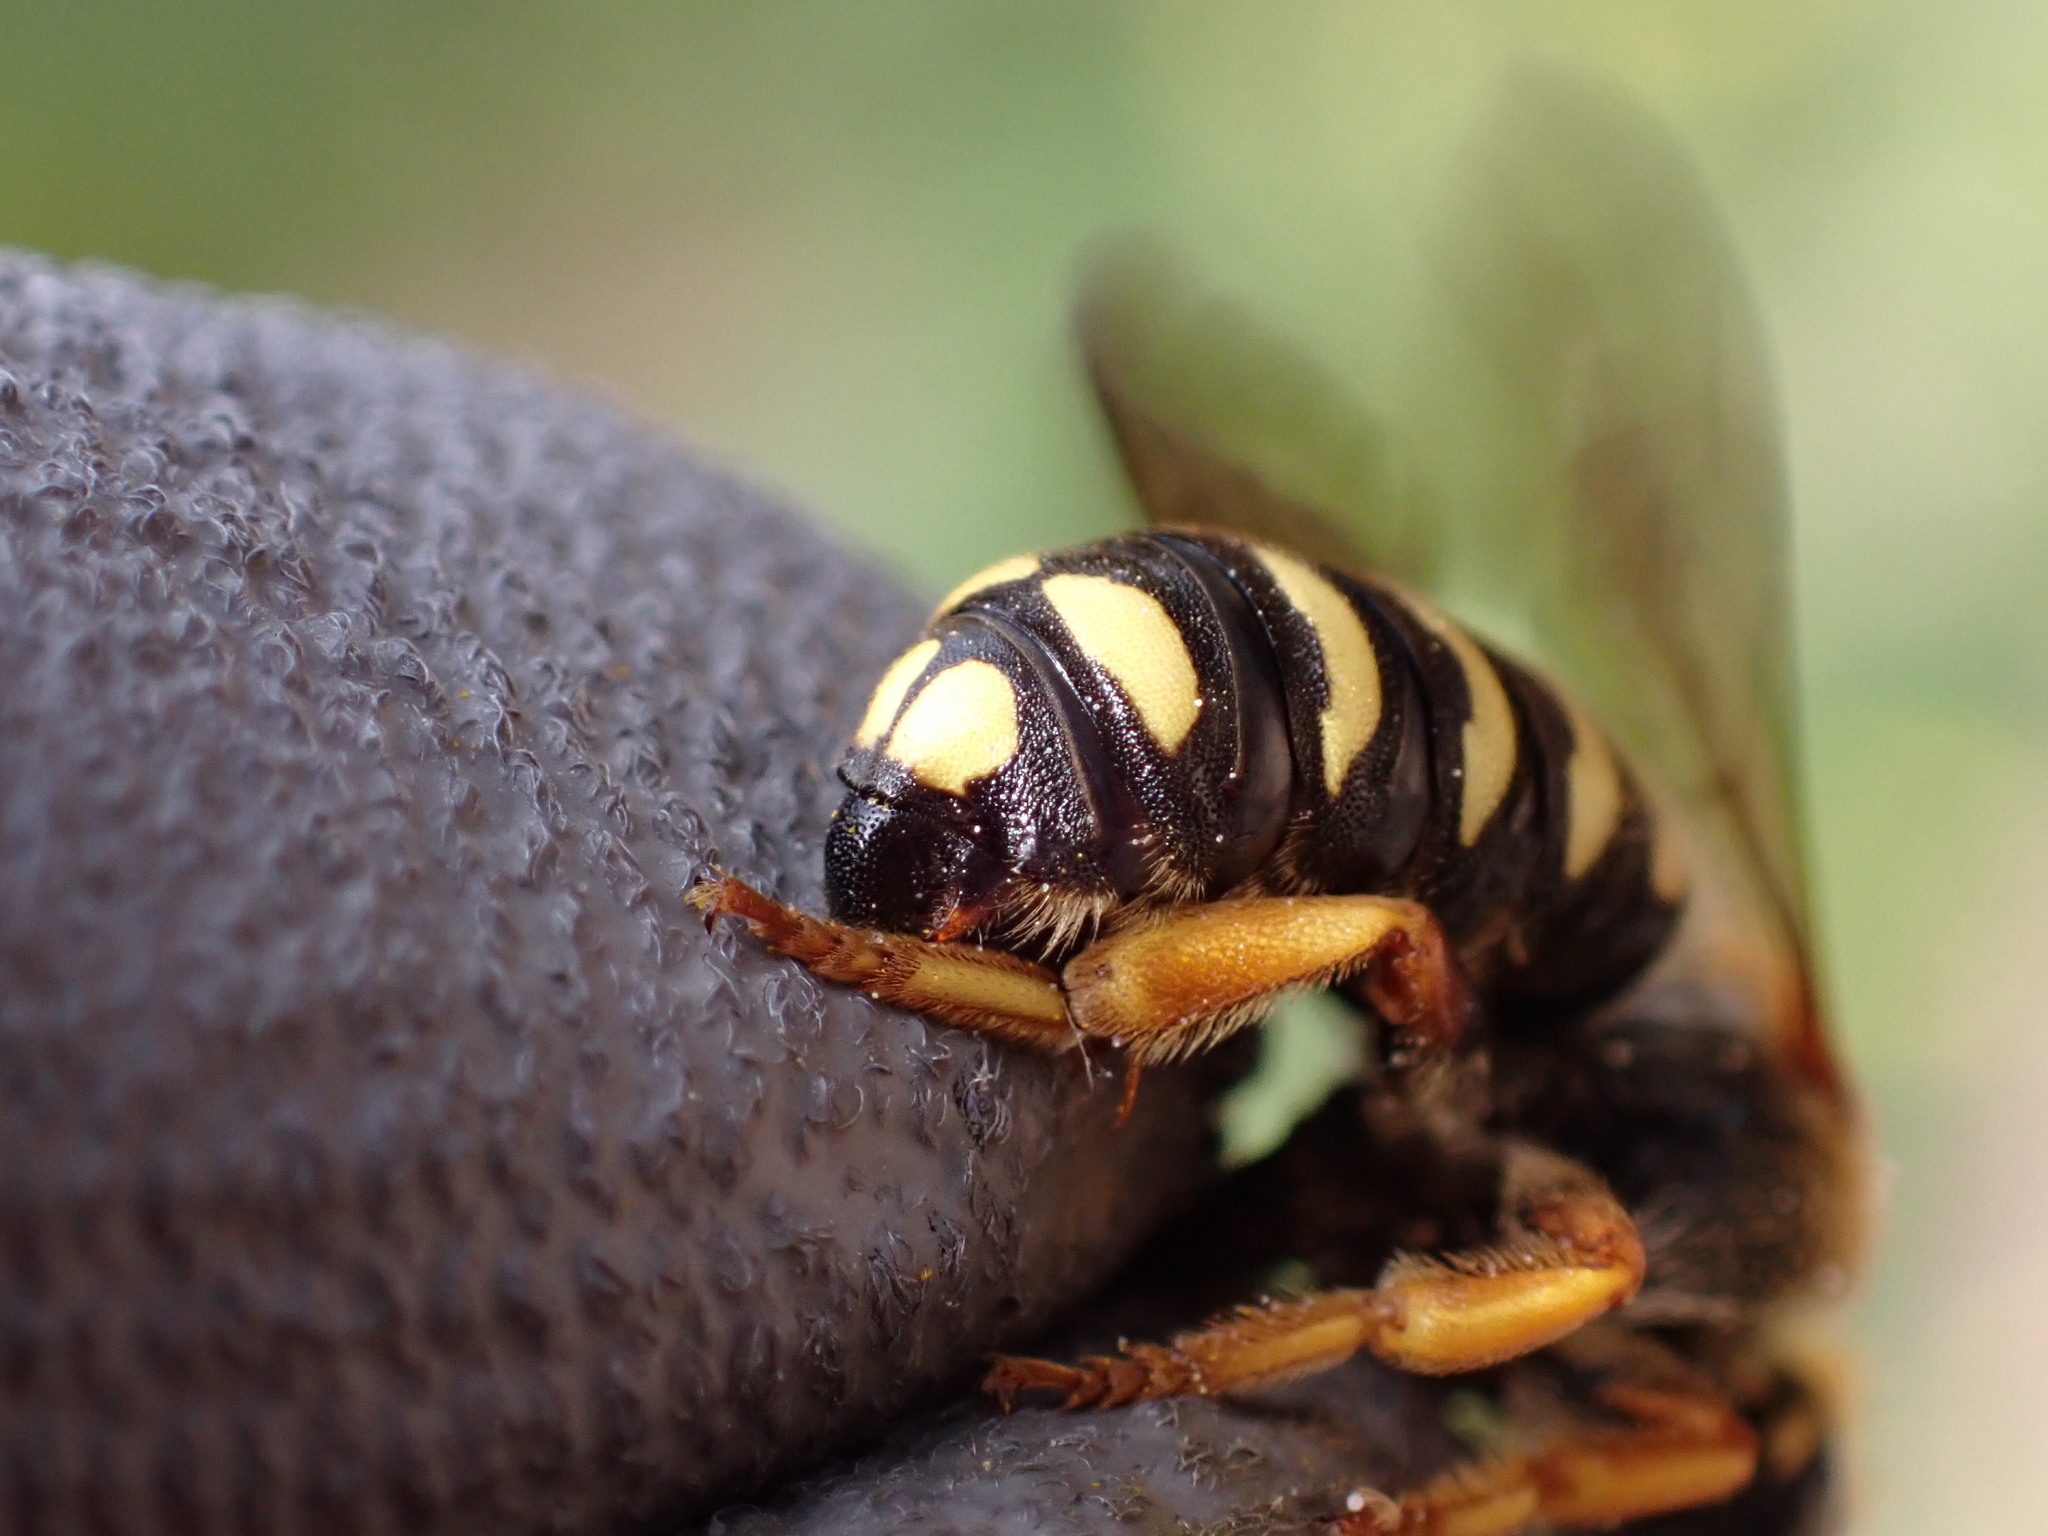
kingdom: Animalia
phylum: Arthropoda
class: Insecta
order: Hymenoptera
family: Megachilidae
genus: Rhodanthidium
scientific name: Rhodanthidium septemdentatum
